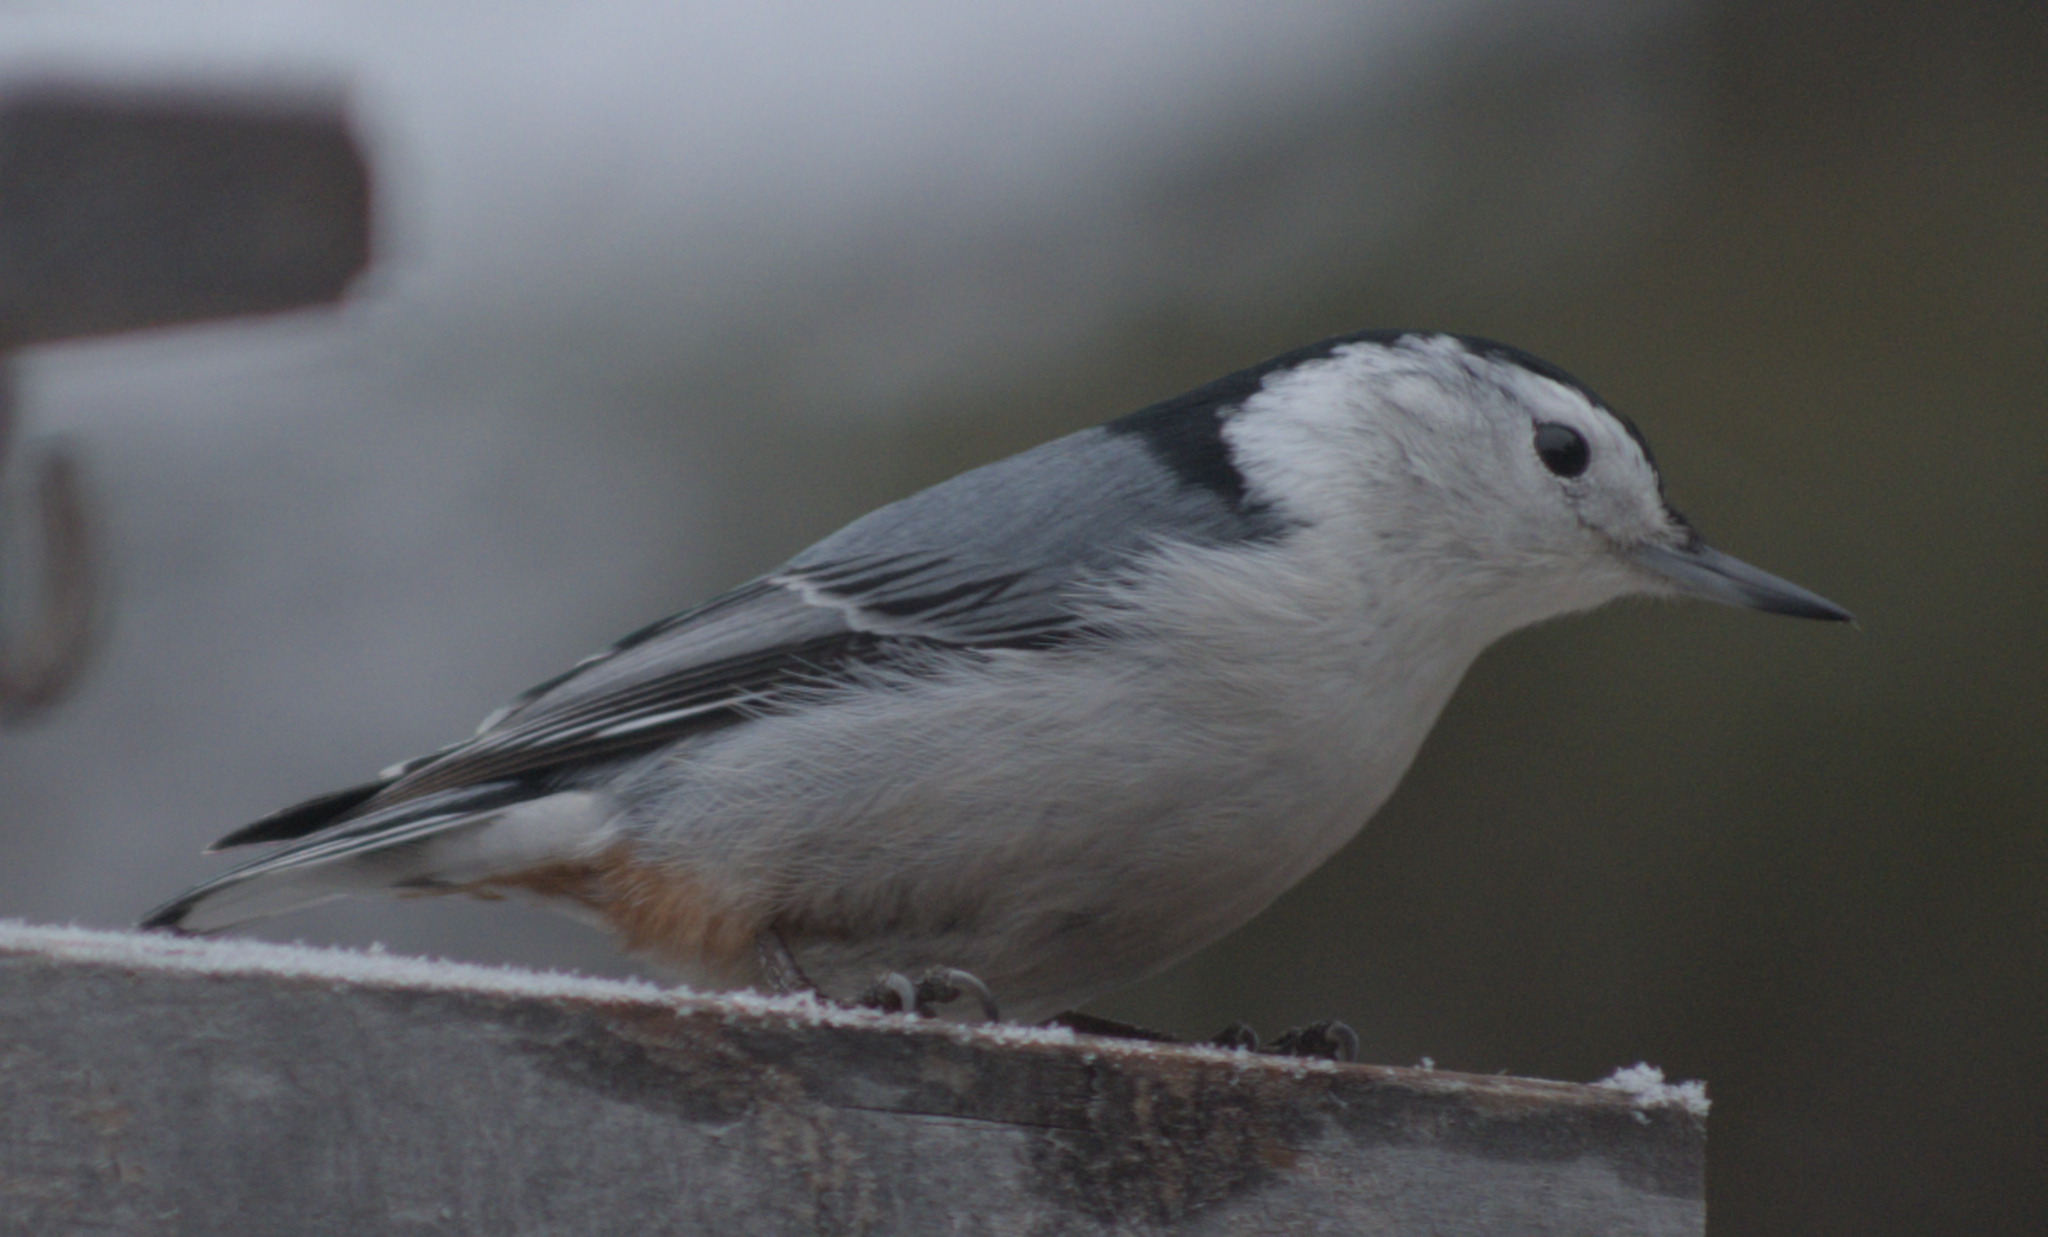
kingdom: Animalia
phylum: Chordata
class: Aves
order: Passeriformes
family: Sittidae
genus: Sitta
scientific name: Sitta carolinensis
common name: White-breasted nuthatch
